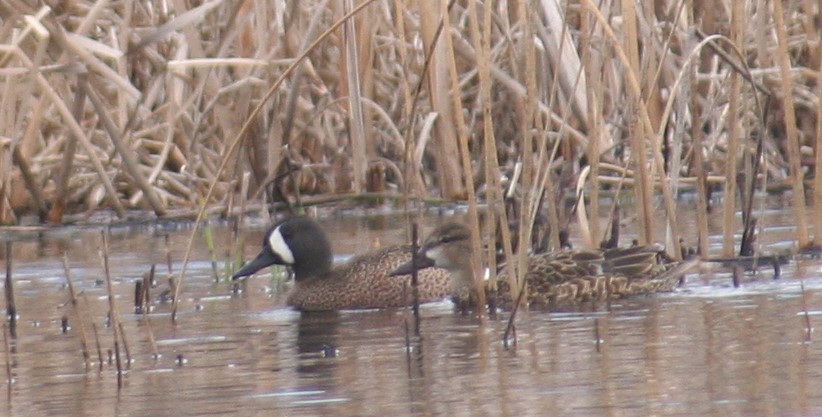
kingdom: Animalia
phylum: Chordata
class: Aves
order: Anseriformes
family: Anatidae
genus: Spatula
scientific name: Spatula discors
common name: Blue-winged teal
